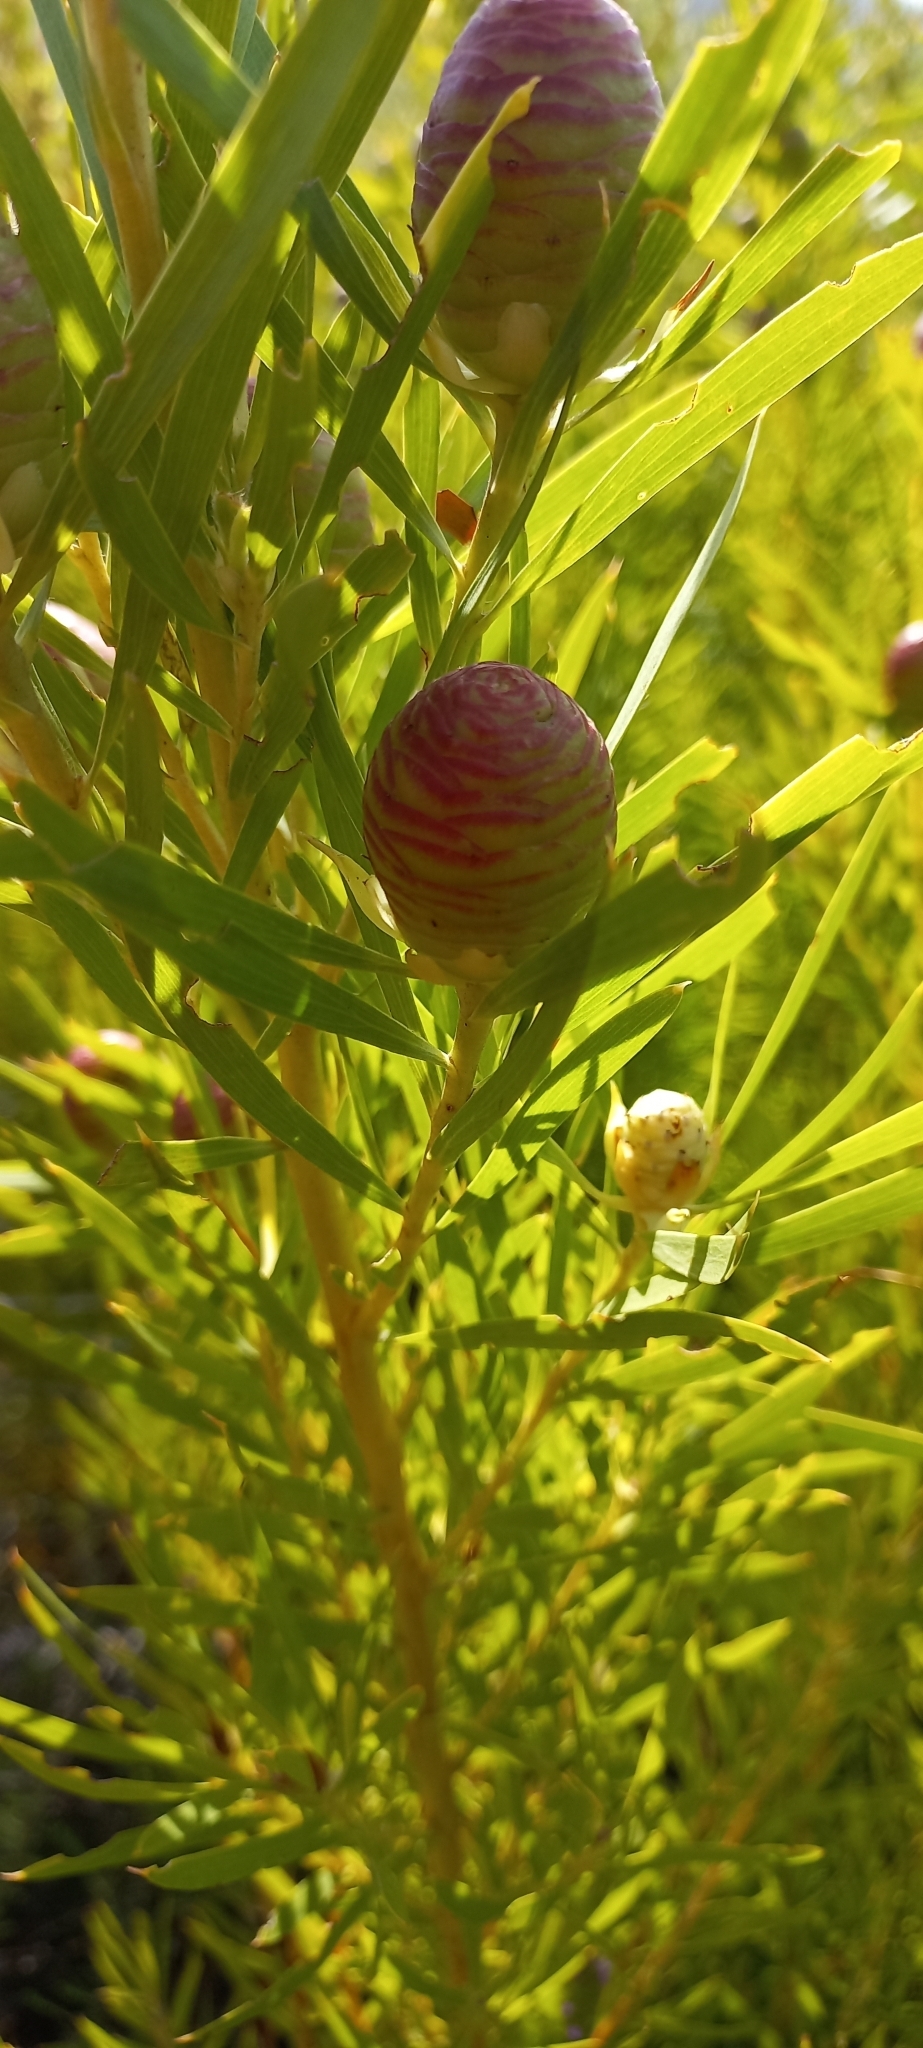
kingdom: Plantae
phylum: Tracheophyta
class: Magnoliopsida
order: Proteales
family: Proteaceae
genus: Leucadendron
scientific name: Leucadendron salicifolium
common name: Common stream conebush
